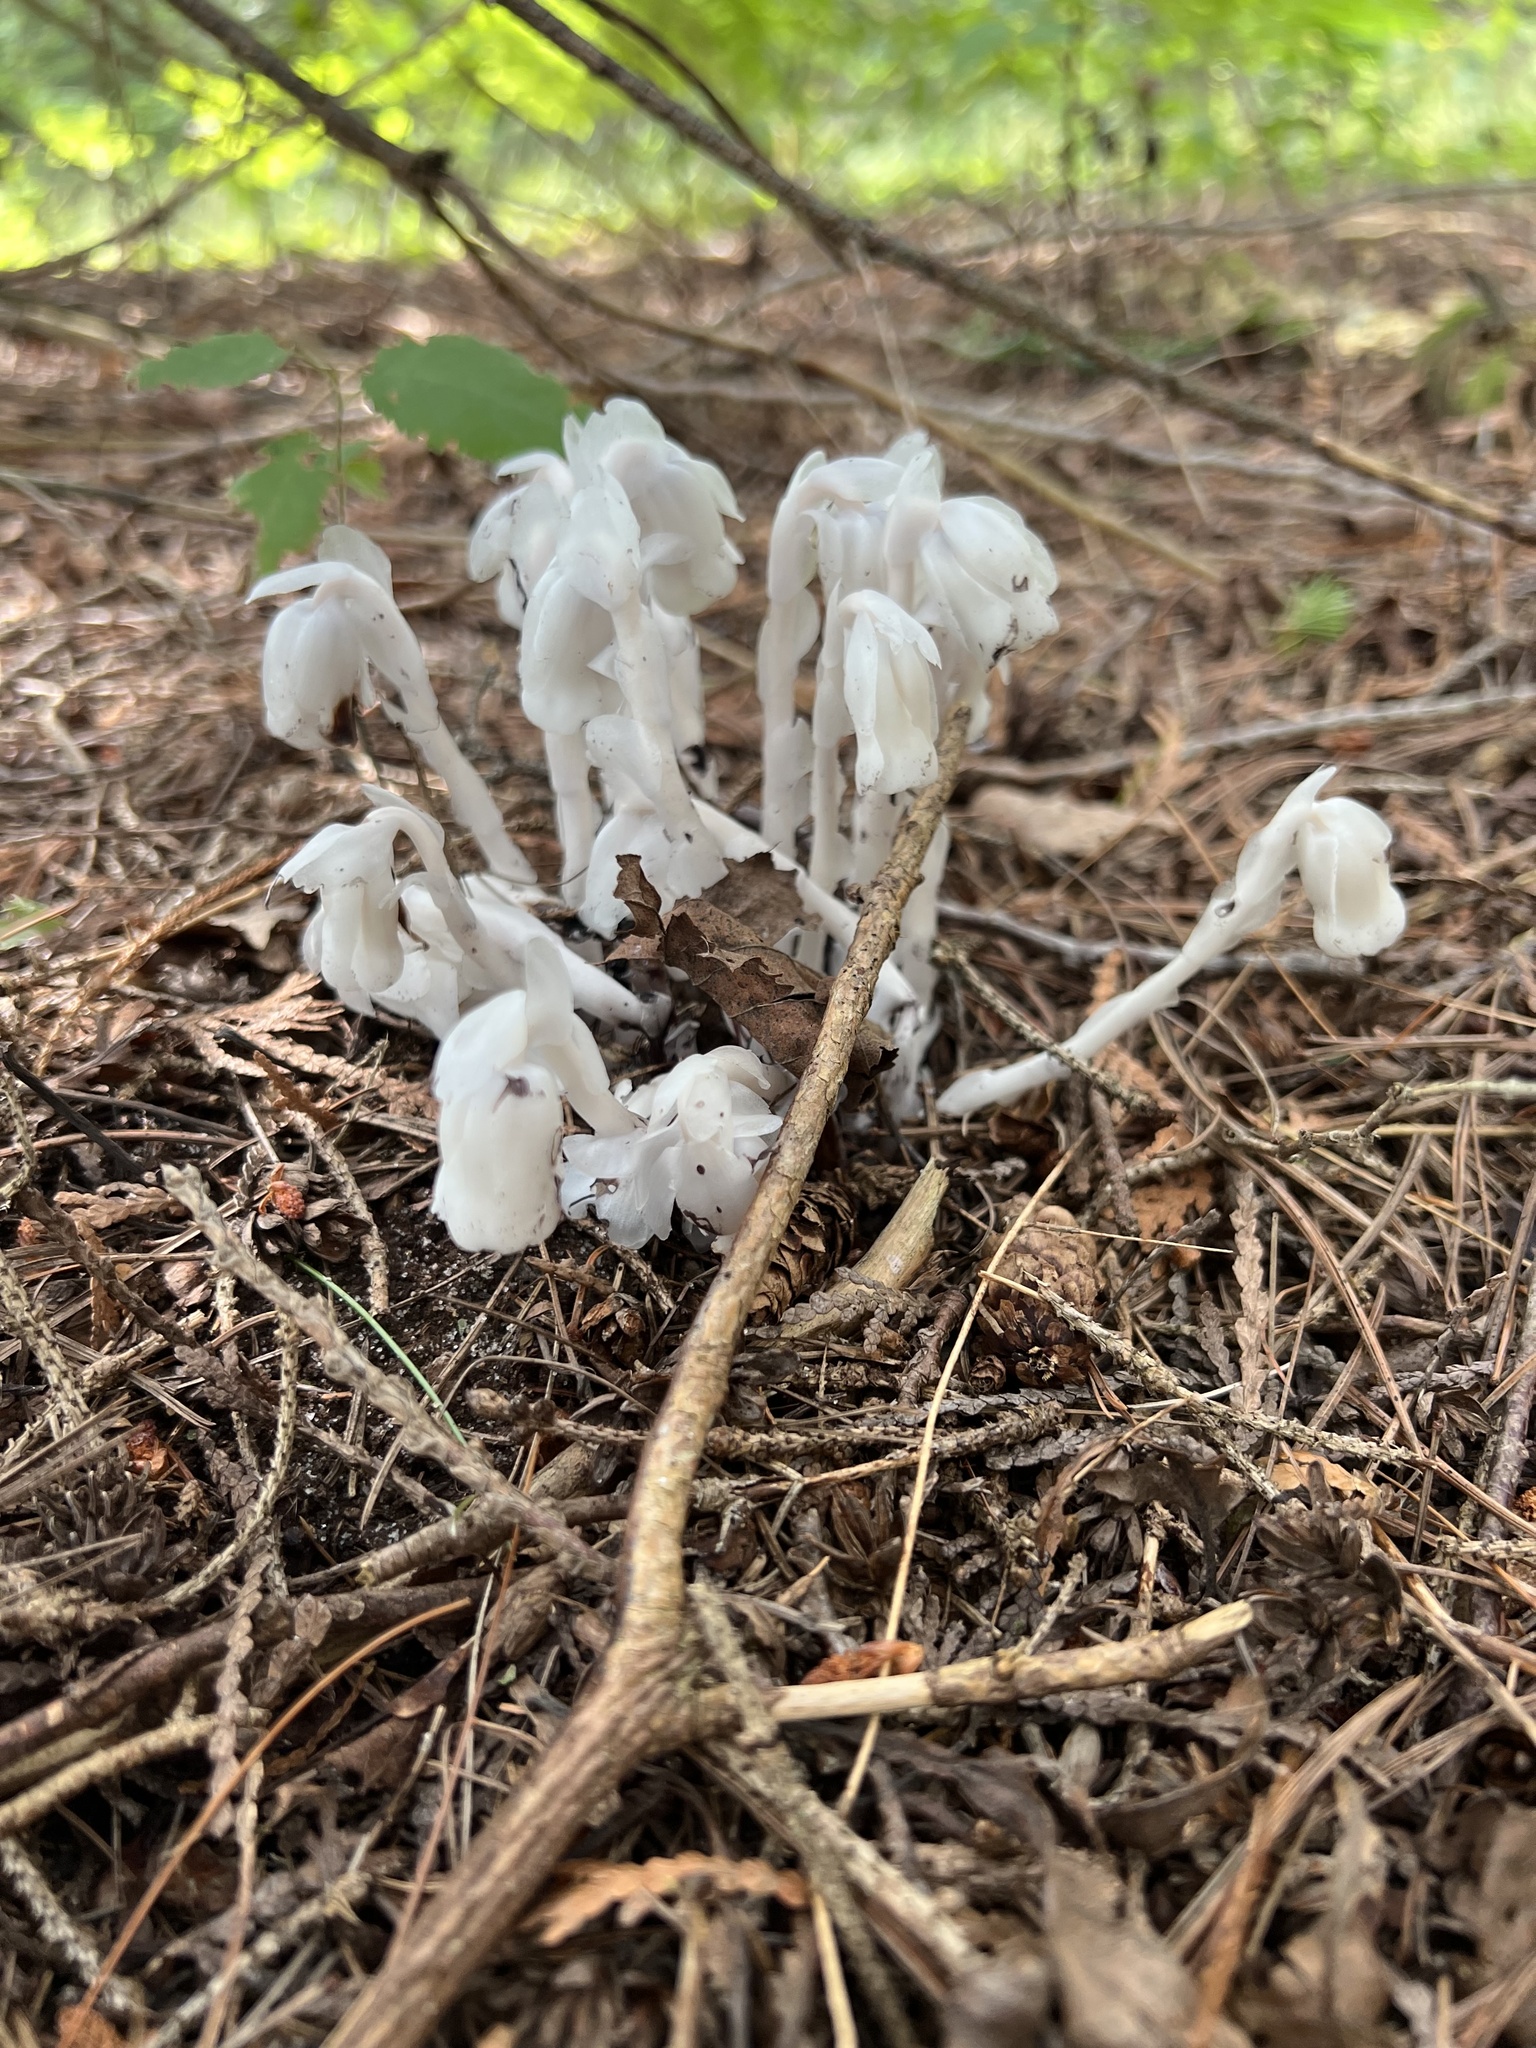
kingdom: Plantae
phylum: Tracheophyta
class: Magnoliopsida
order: Ericales
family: Ericaceae
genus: Monotropa
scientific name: Monotropa uniflora
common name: Convulsion root
